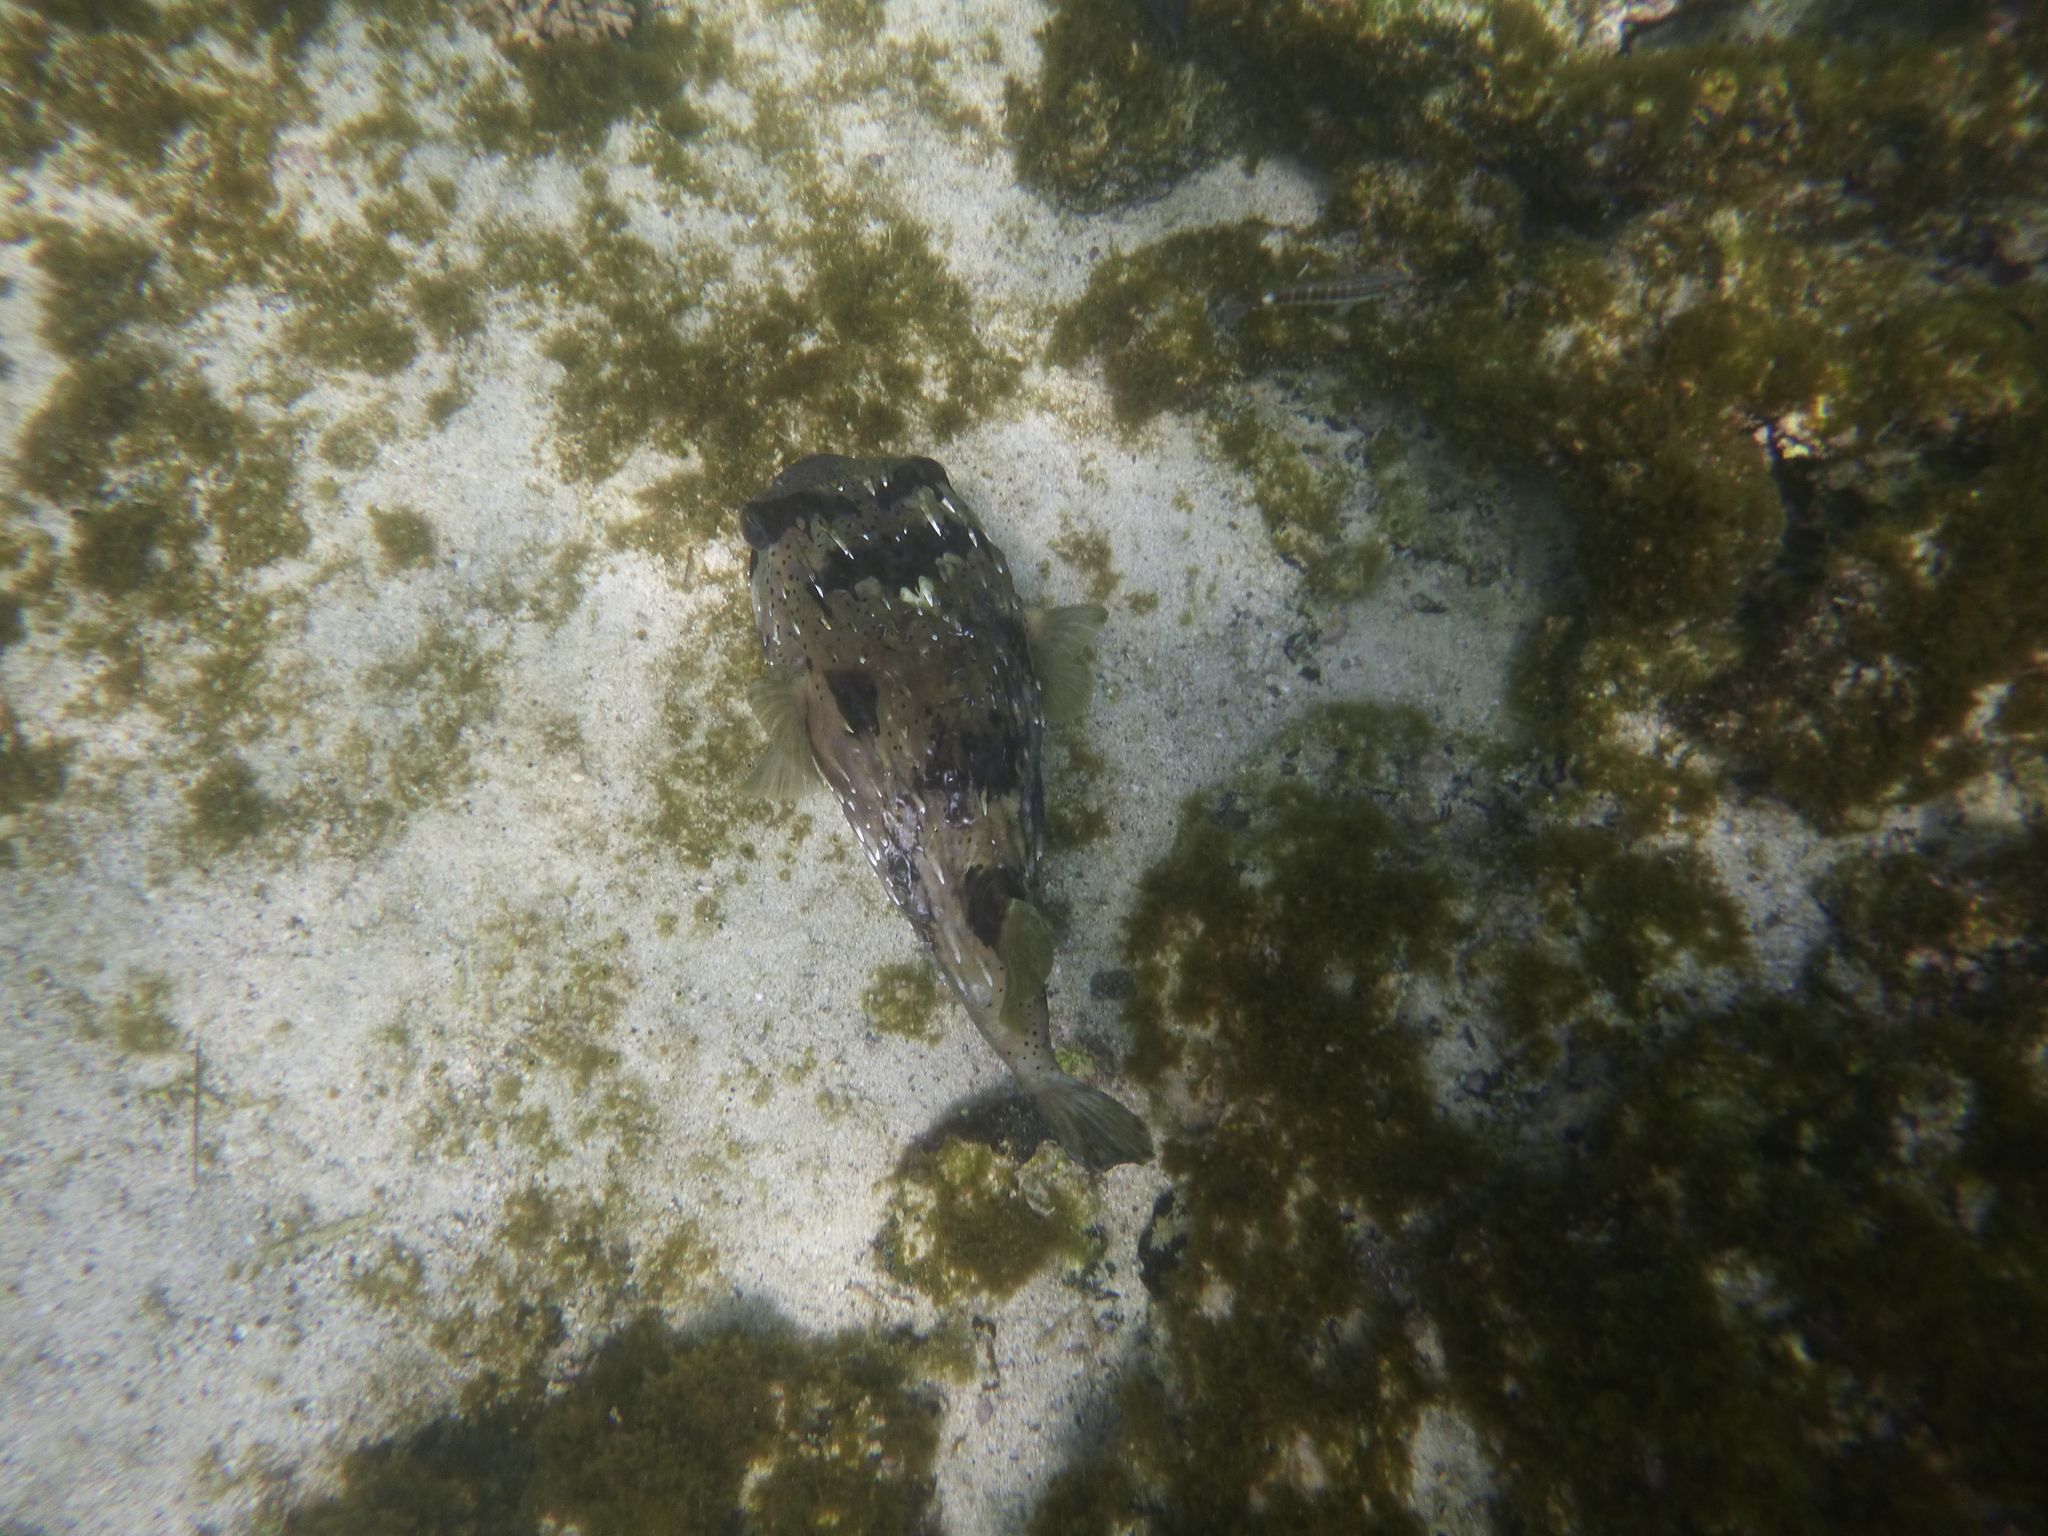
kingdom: Animalia
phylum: Chordata
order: Tetraodontiformes
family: Diodontidae
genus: Diodon
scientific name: Diodon holocanthus
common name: Balloonfish
